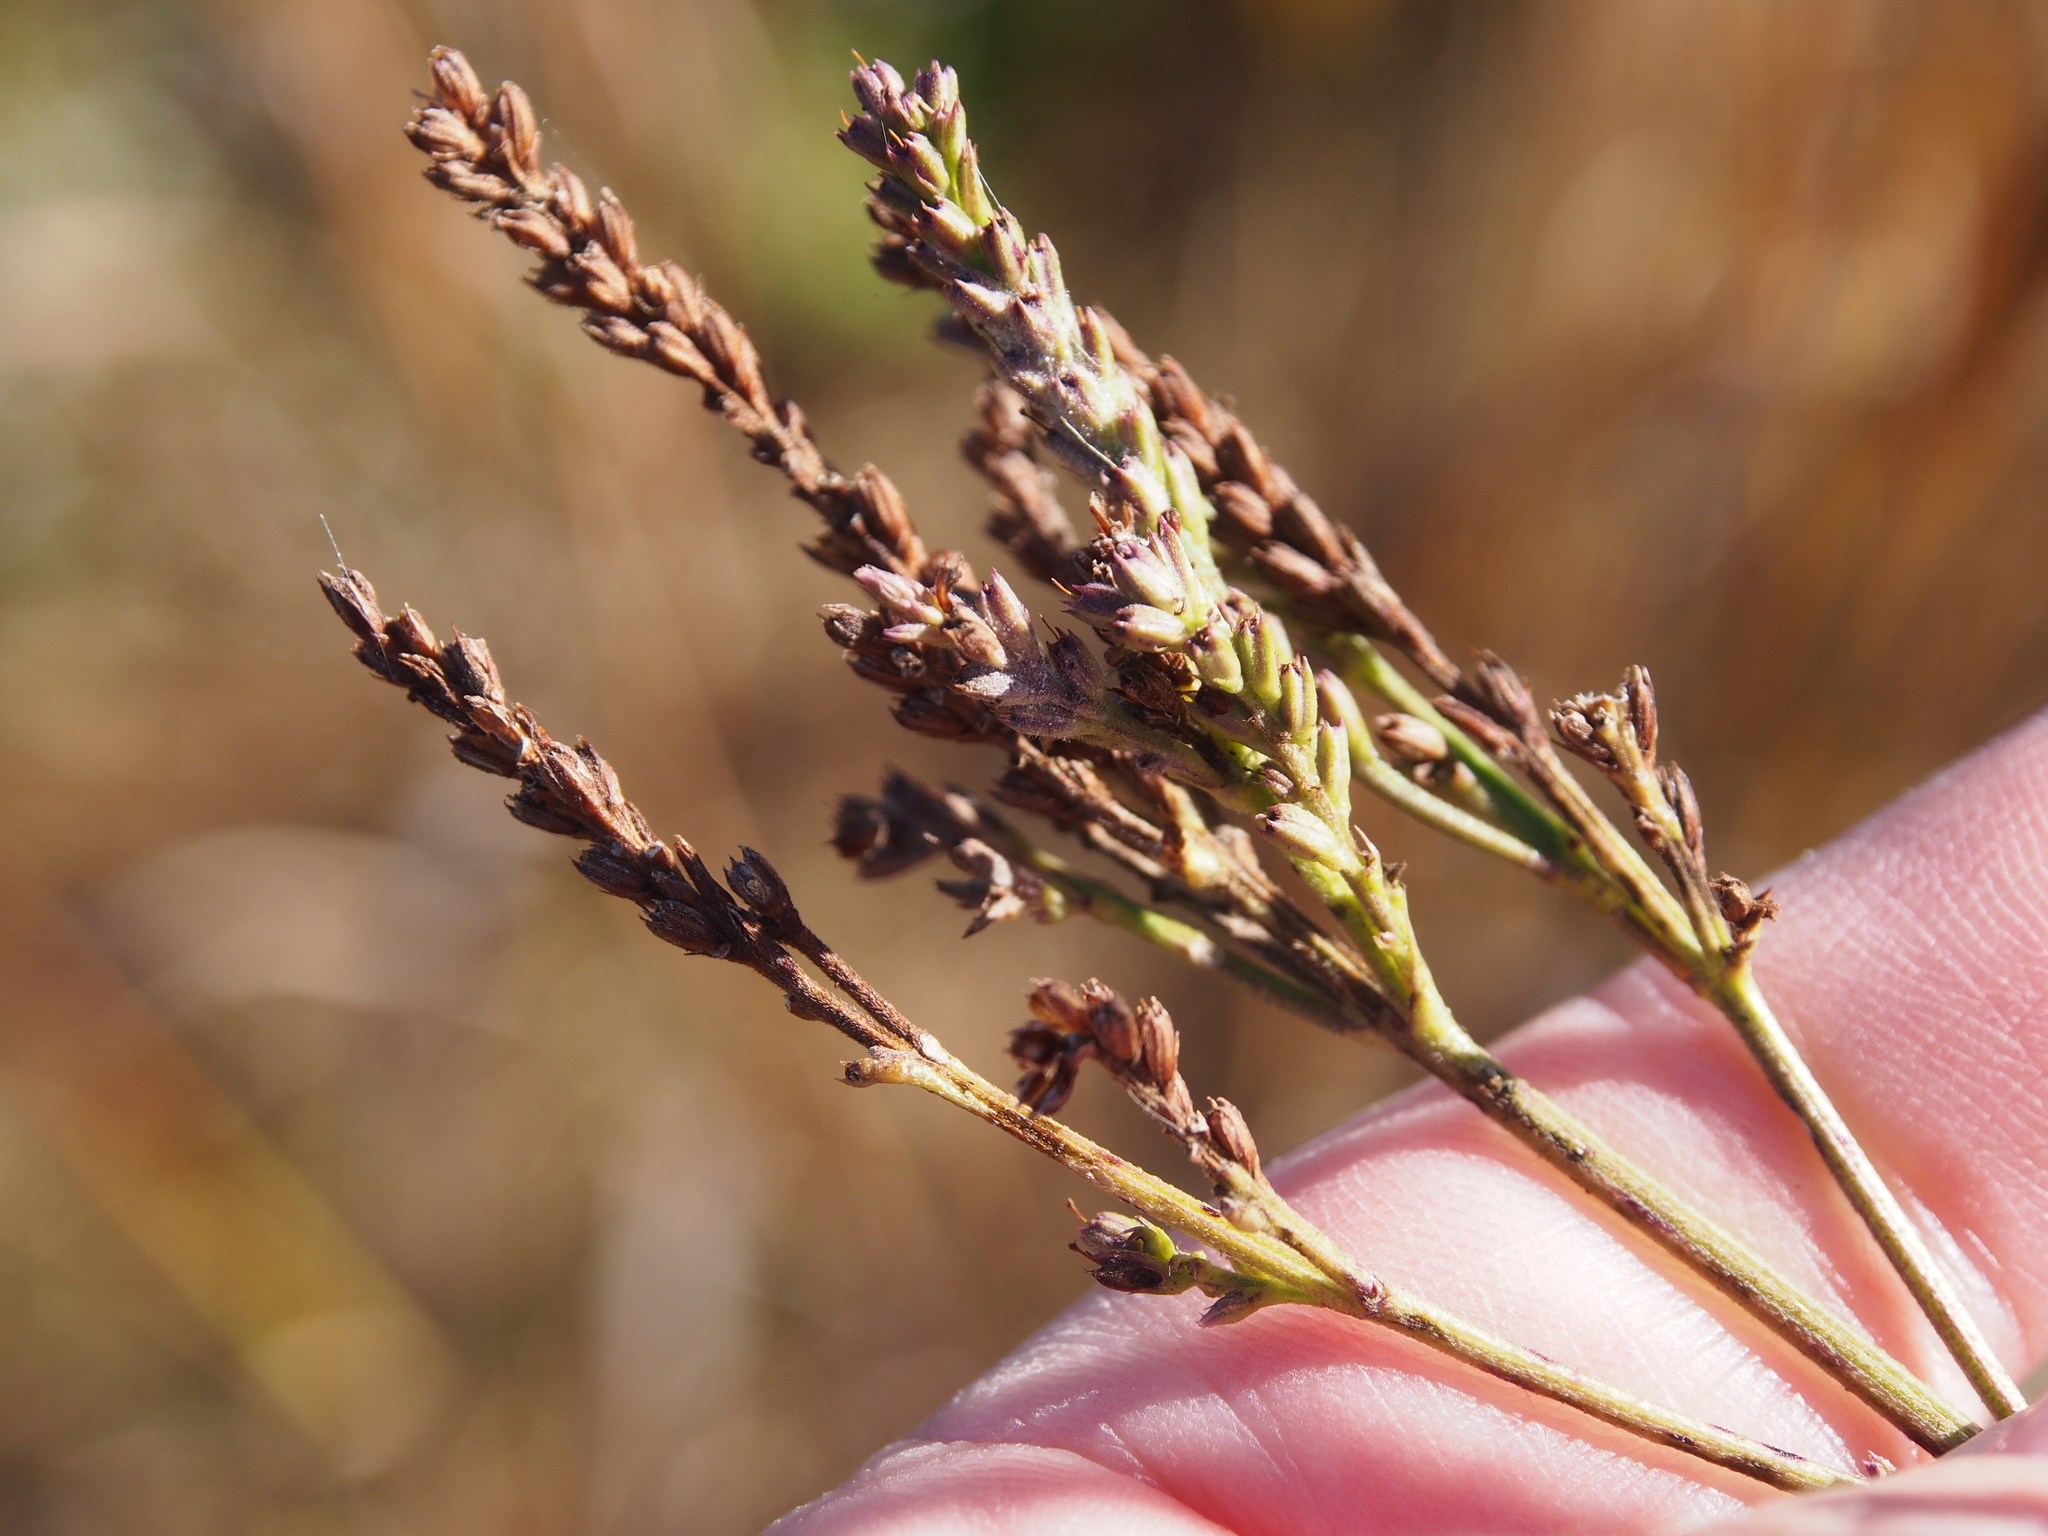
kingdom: Plantae
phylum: Tracheophyta
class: Magnoliopsida
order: Lamiales
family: Verbenaceae
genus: Verbena
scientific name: Verbena hastata
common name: American blue vervain
